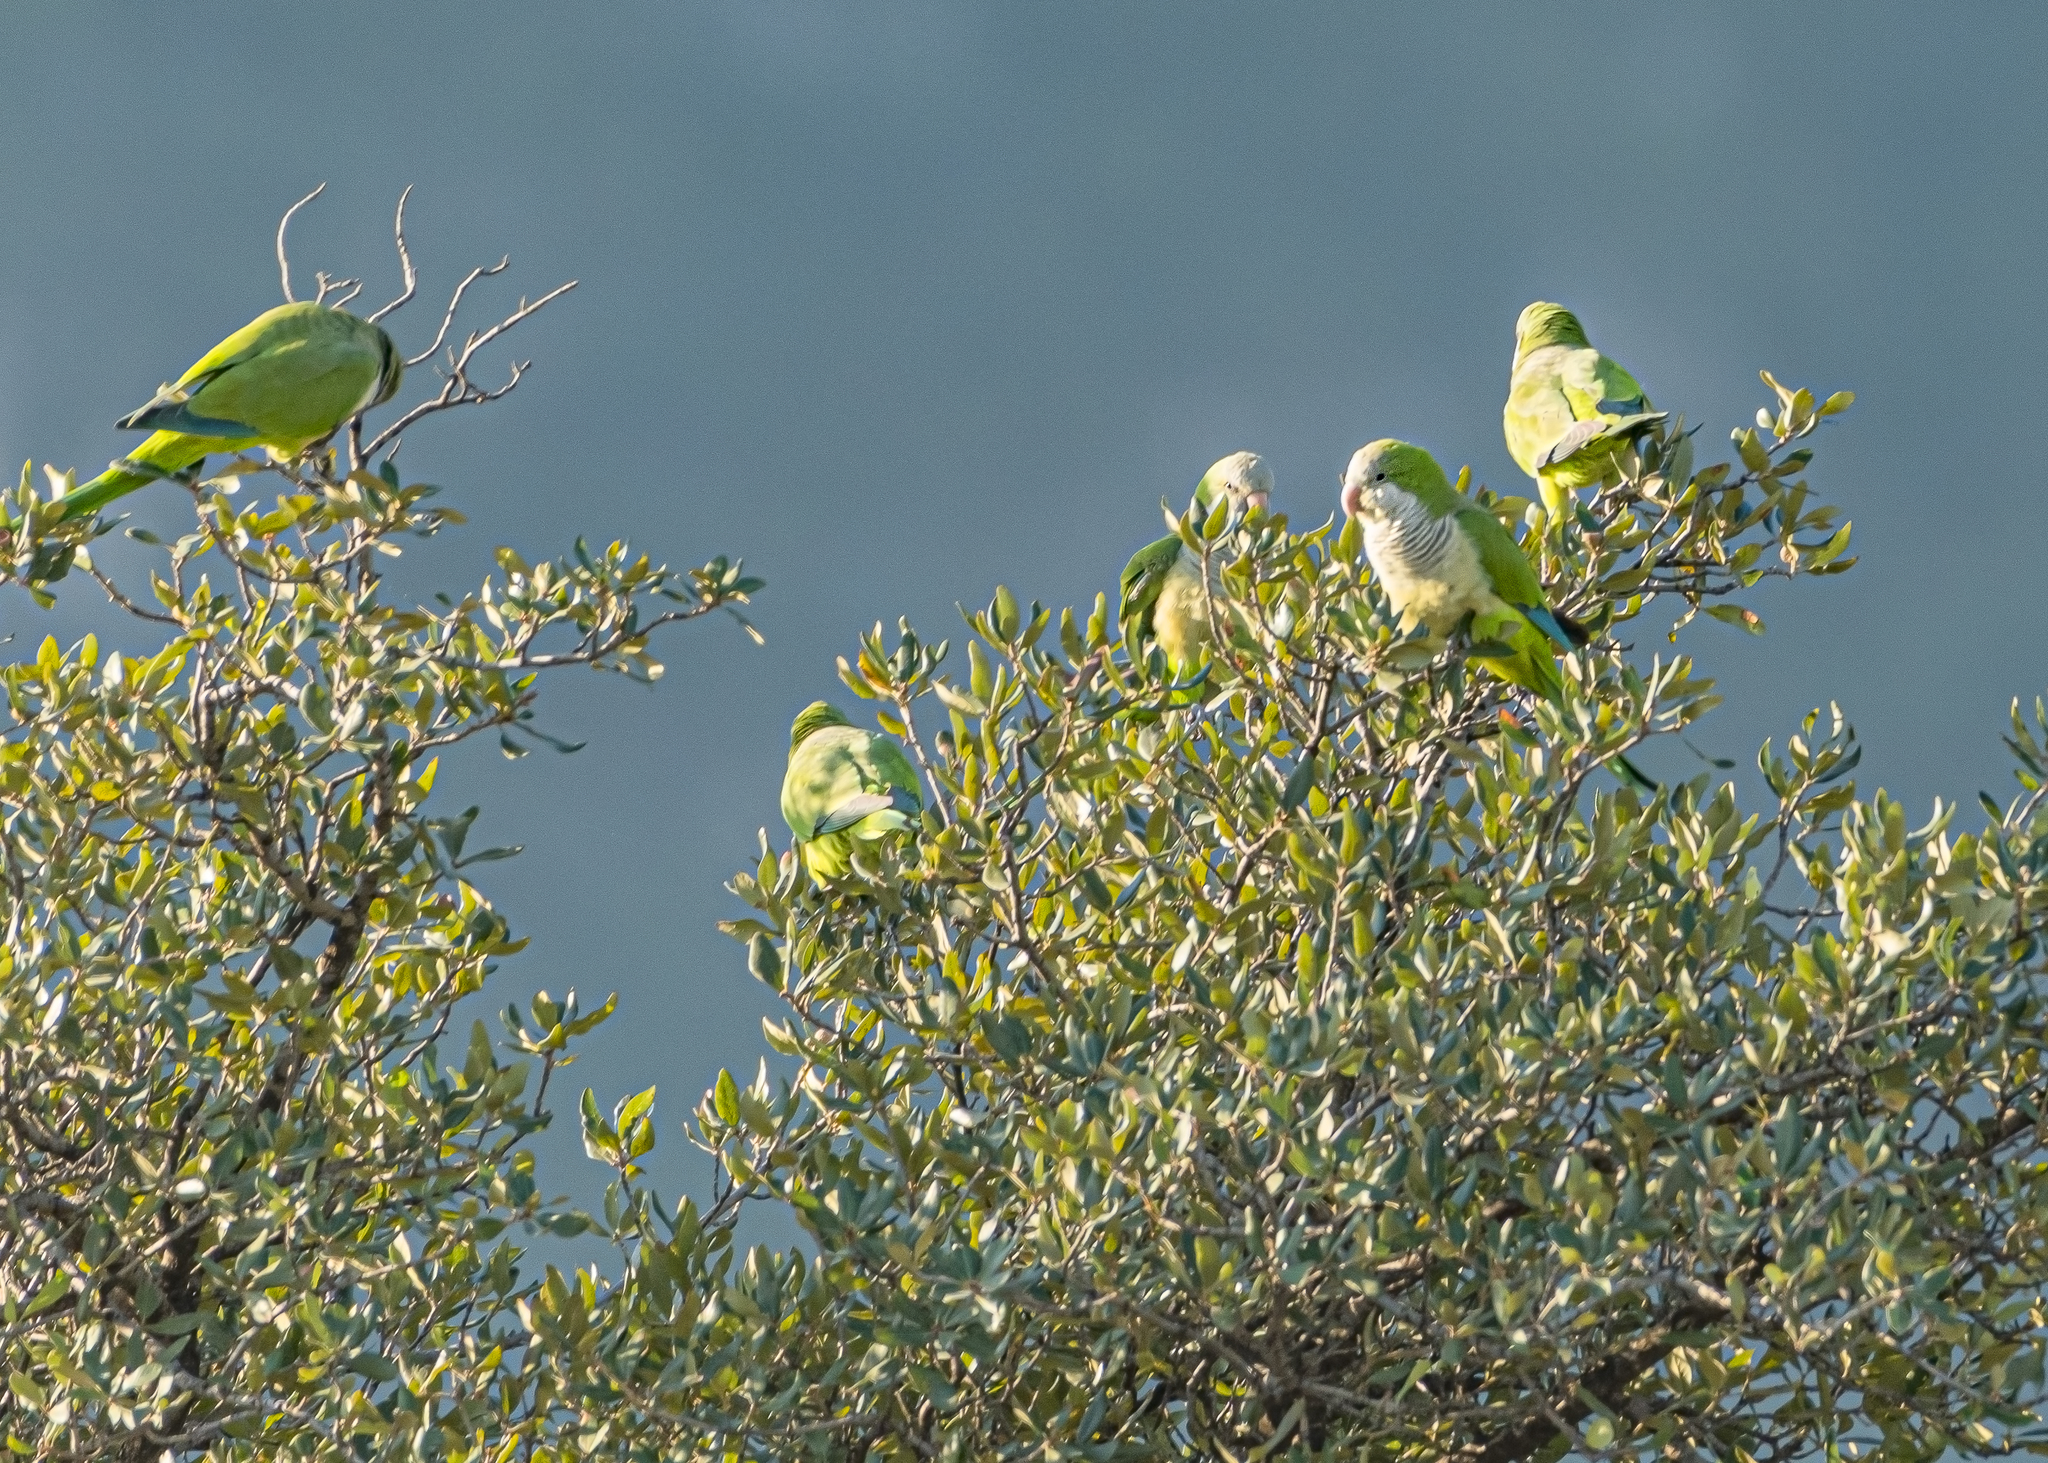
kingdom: Animalia
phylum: Chordata
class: Aves
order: Psittaciformes
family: Psittacidae
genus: Myiopsitta
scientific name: Myiopsitta monachus
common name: Monk parakeet
